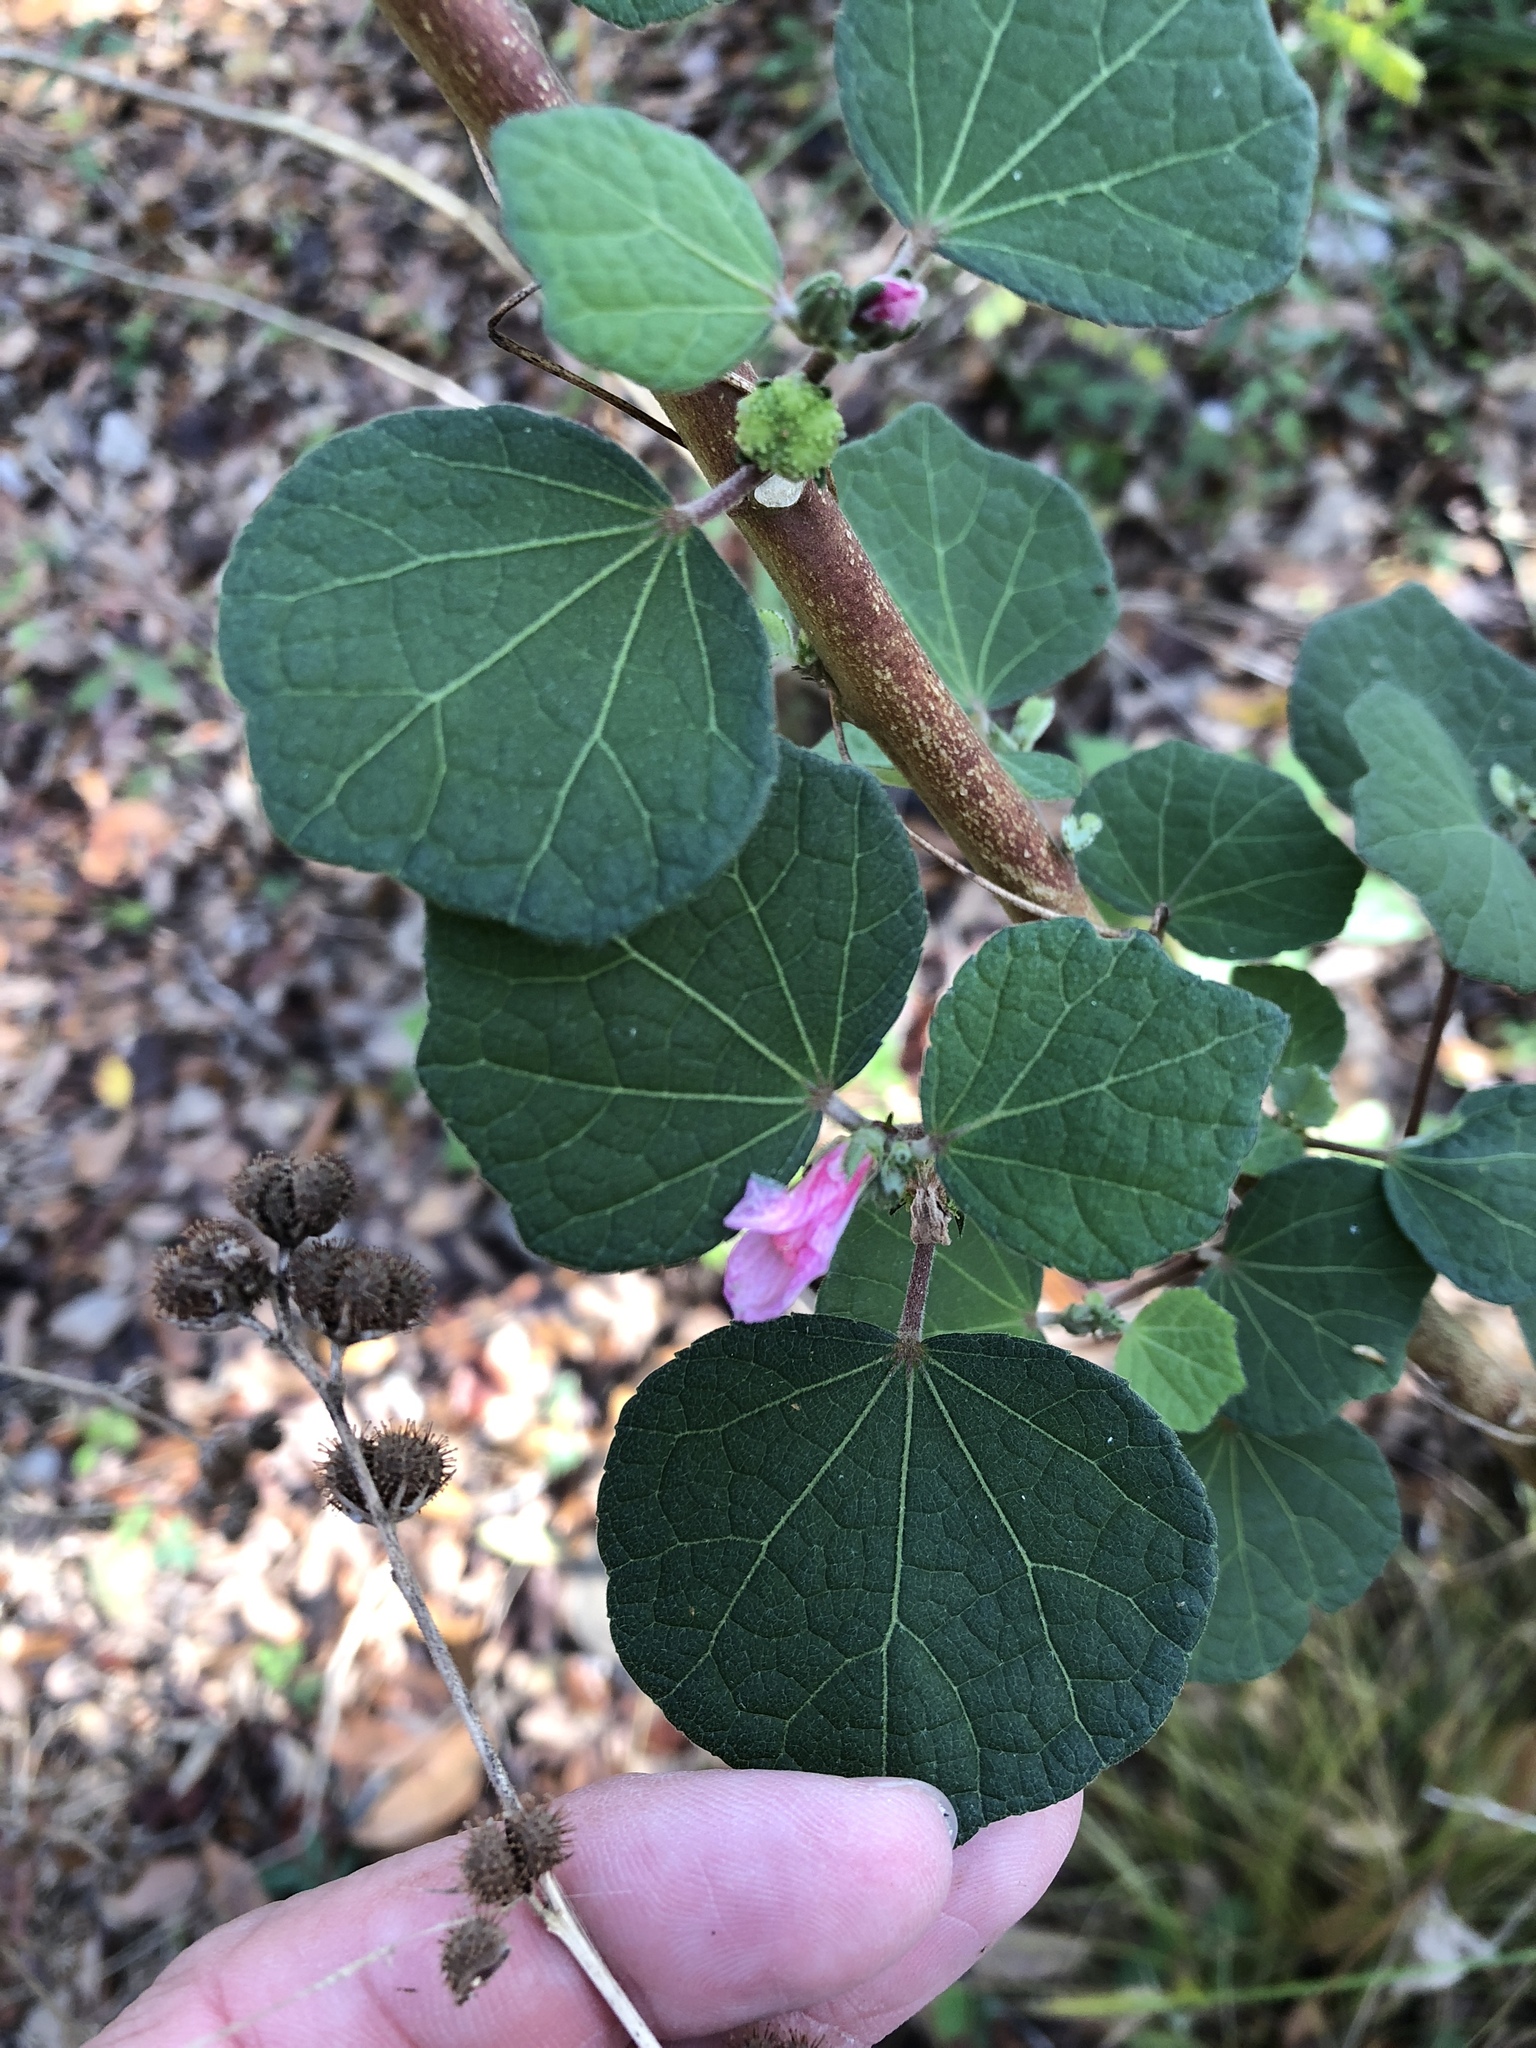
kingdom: Plantae
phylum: Tracheophyta
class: Magnoliopsida
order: Malvales
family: Malvaceae
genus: Urena
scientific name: Urena lobata
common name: Caesarweed
